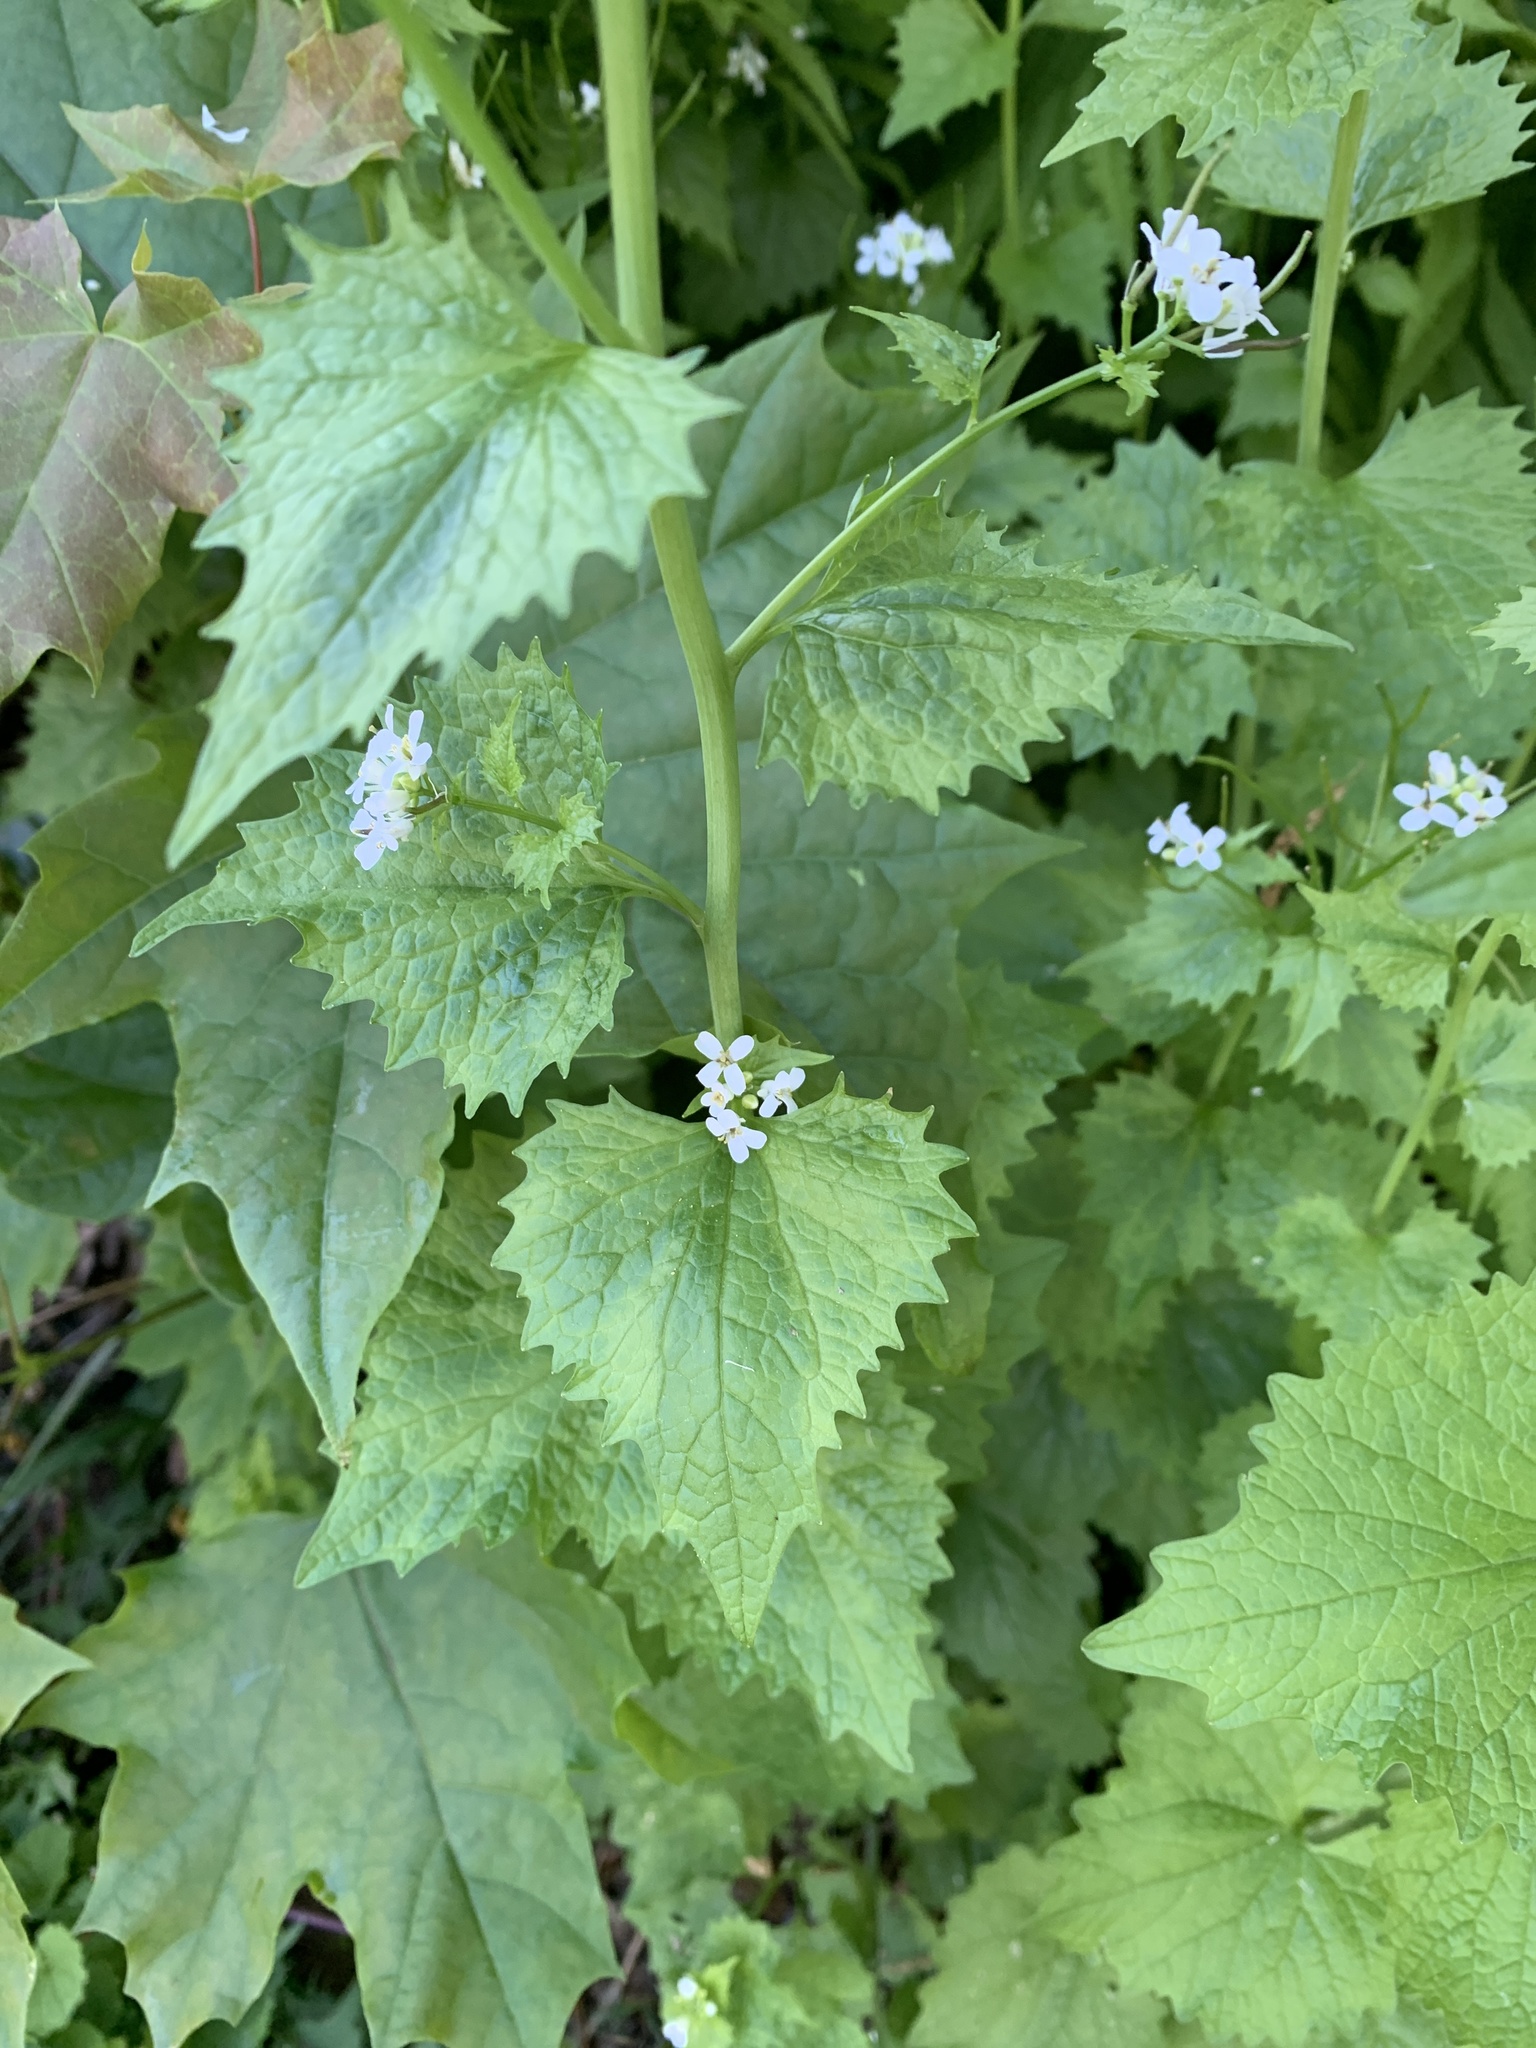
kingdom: Plantae
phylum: Tracheophyta
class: Magnoliopsida
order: Brassicales
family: Brassicaceae
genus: Alliaria
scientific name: Alliaria petiolata
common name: Garlic mustard
